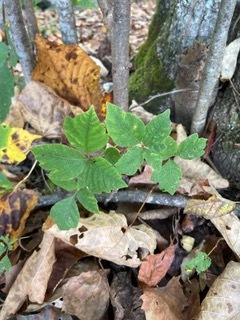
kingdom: Plantae
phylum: Tracheophyta
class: Magnoliopsida
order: Sapindales
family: Anacardiaceae
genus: Toxicodendron
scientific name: Toxicodendron radicans
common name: Poison ivy
